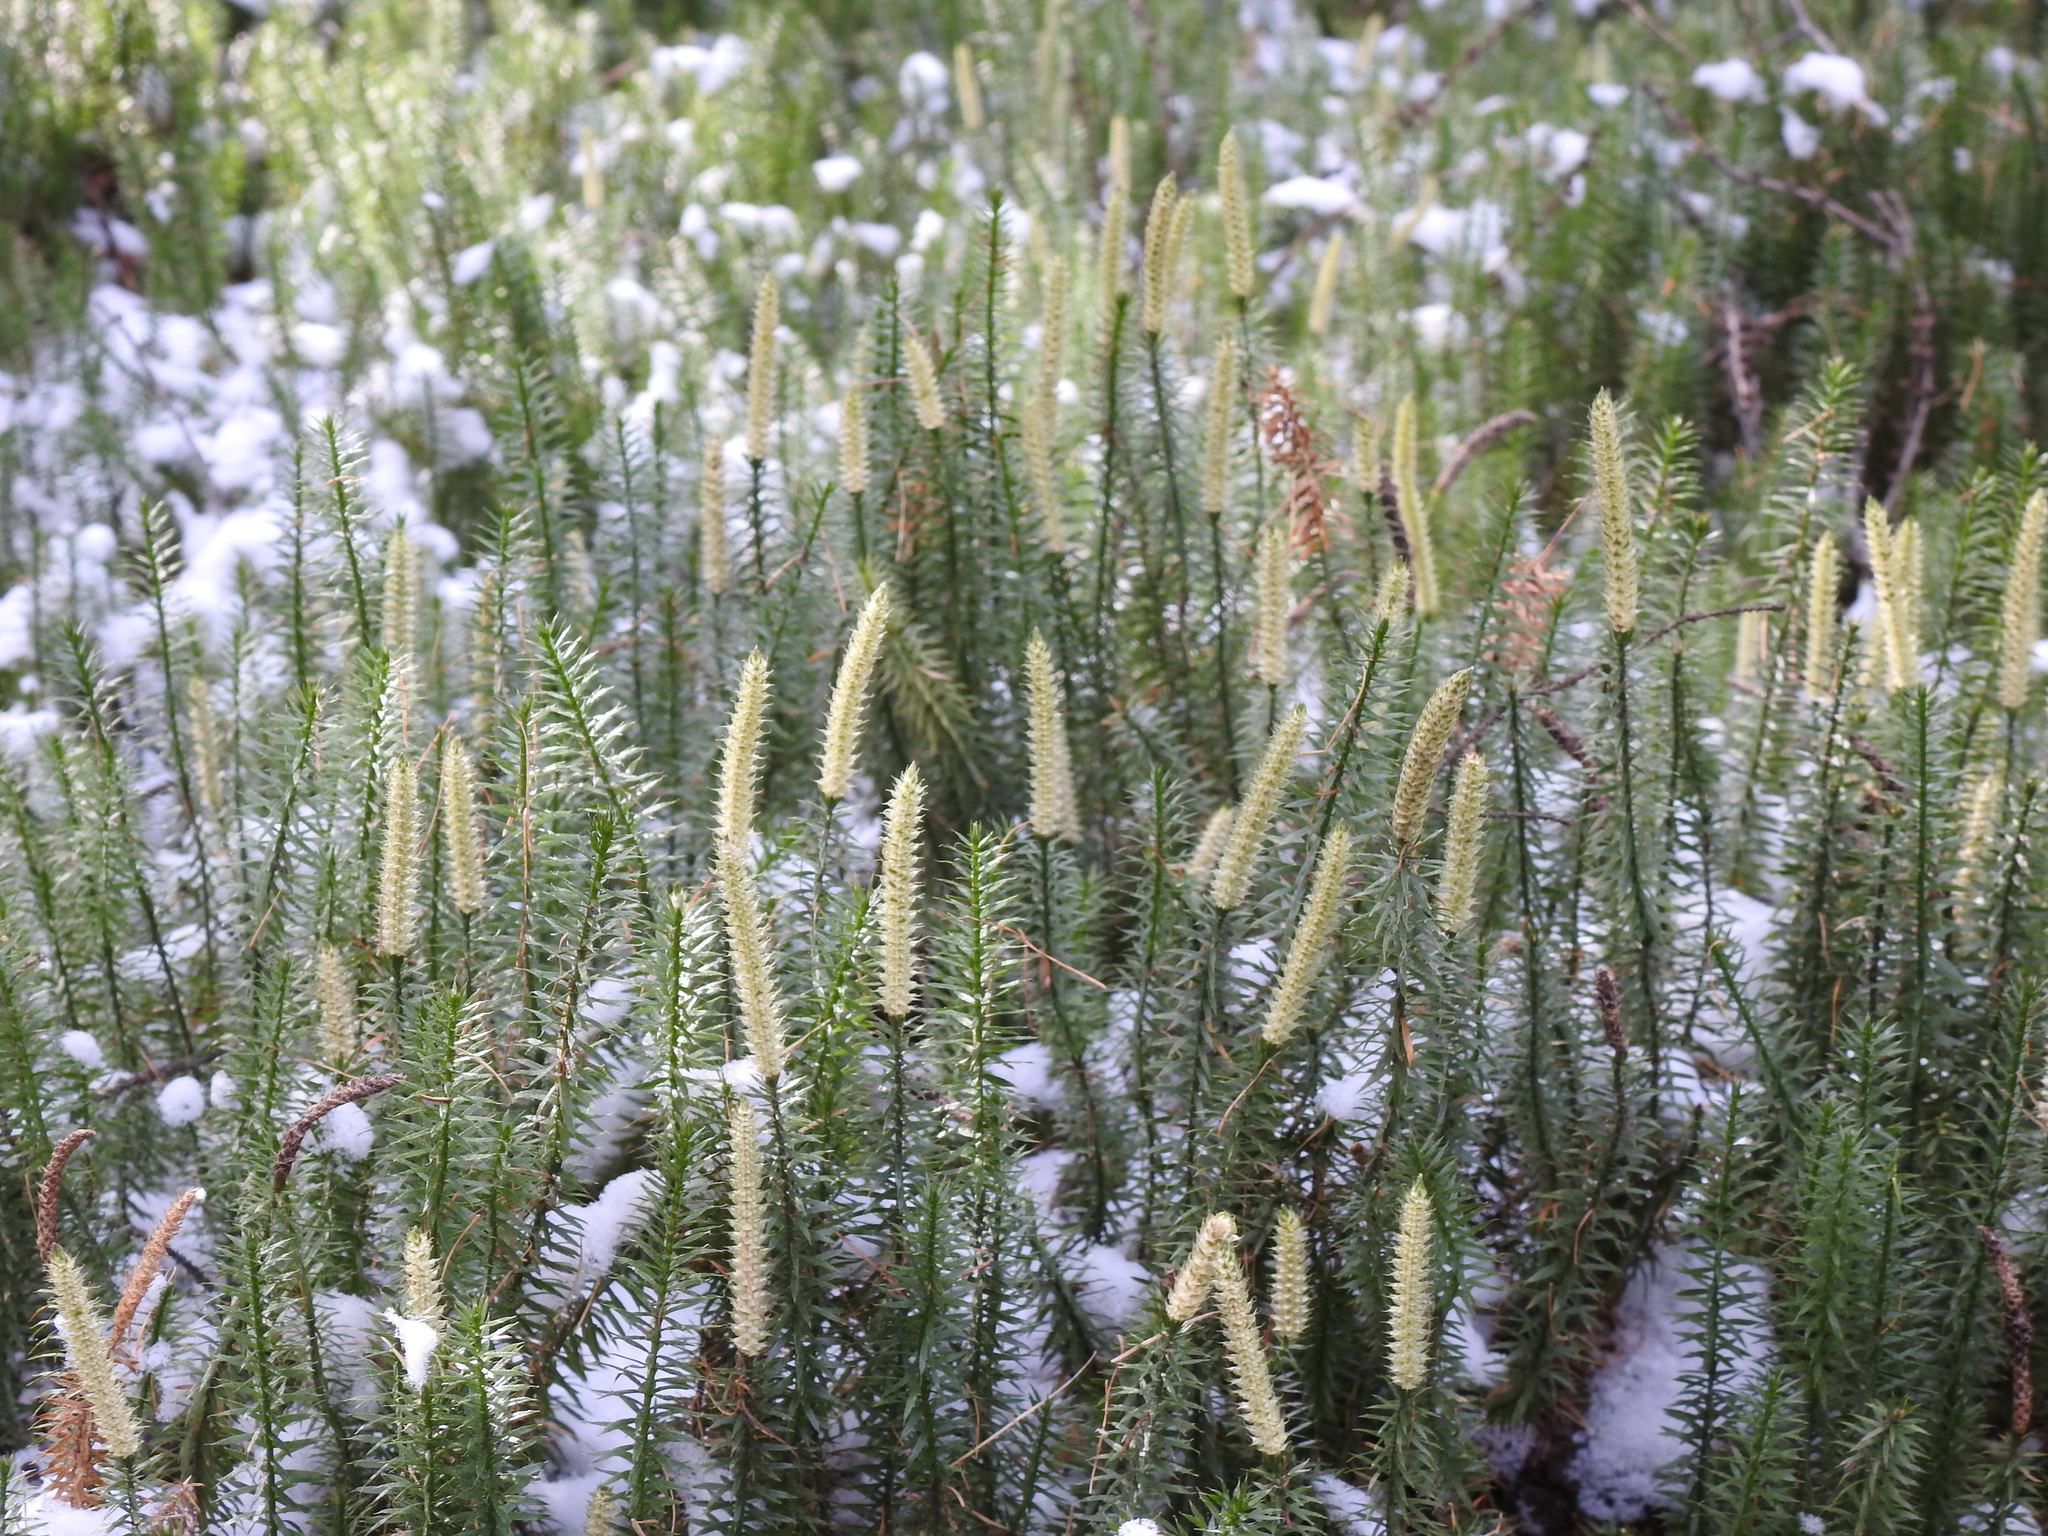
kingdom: Plantae
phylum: Tracheophyta
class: Lycopodiopsida
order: Lycopodiales
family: Lycopodiaceae
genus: Spinulum
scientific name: Spinulum annotinum
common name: Interrupted club-moss
